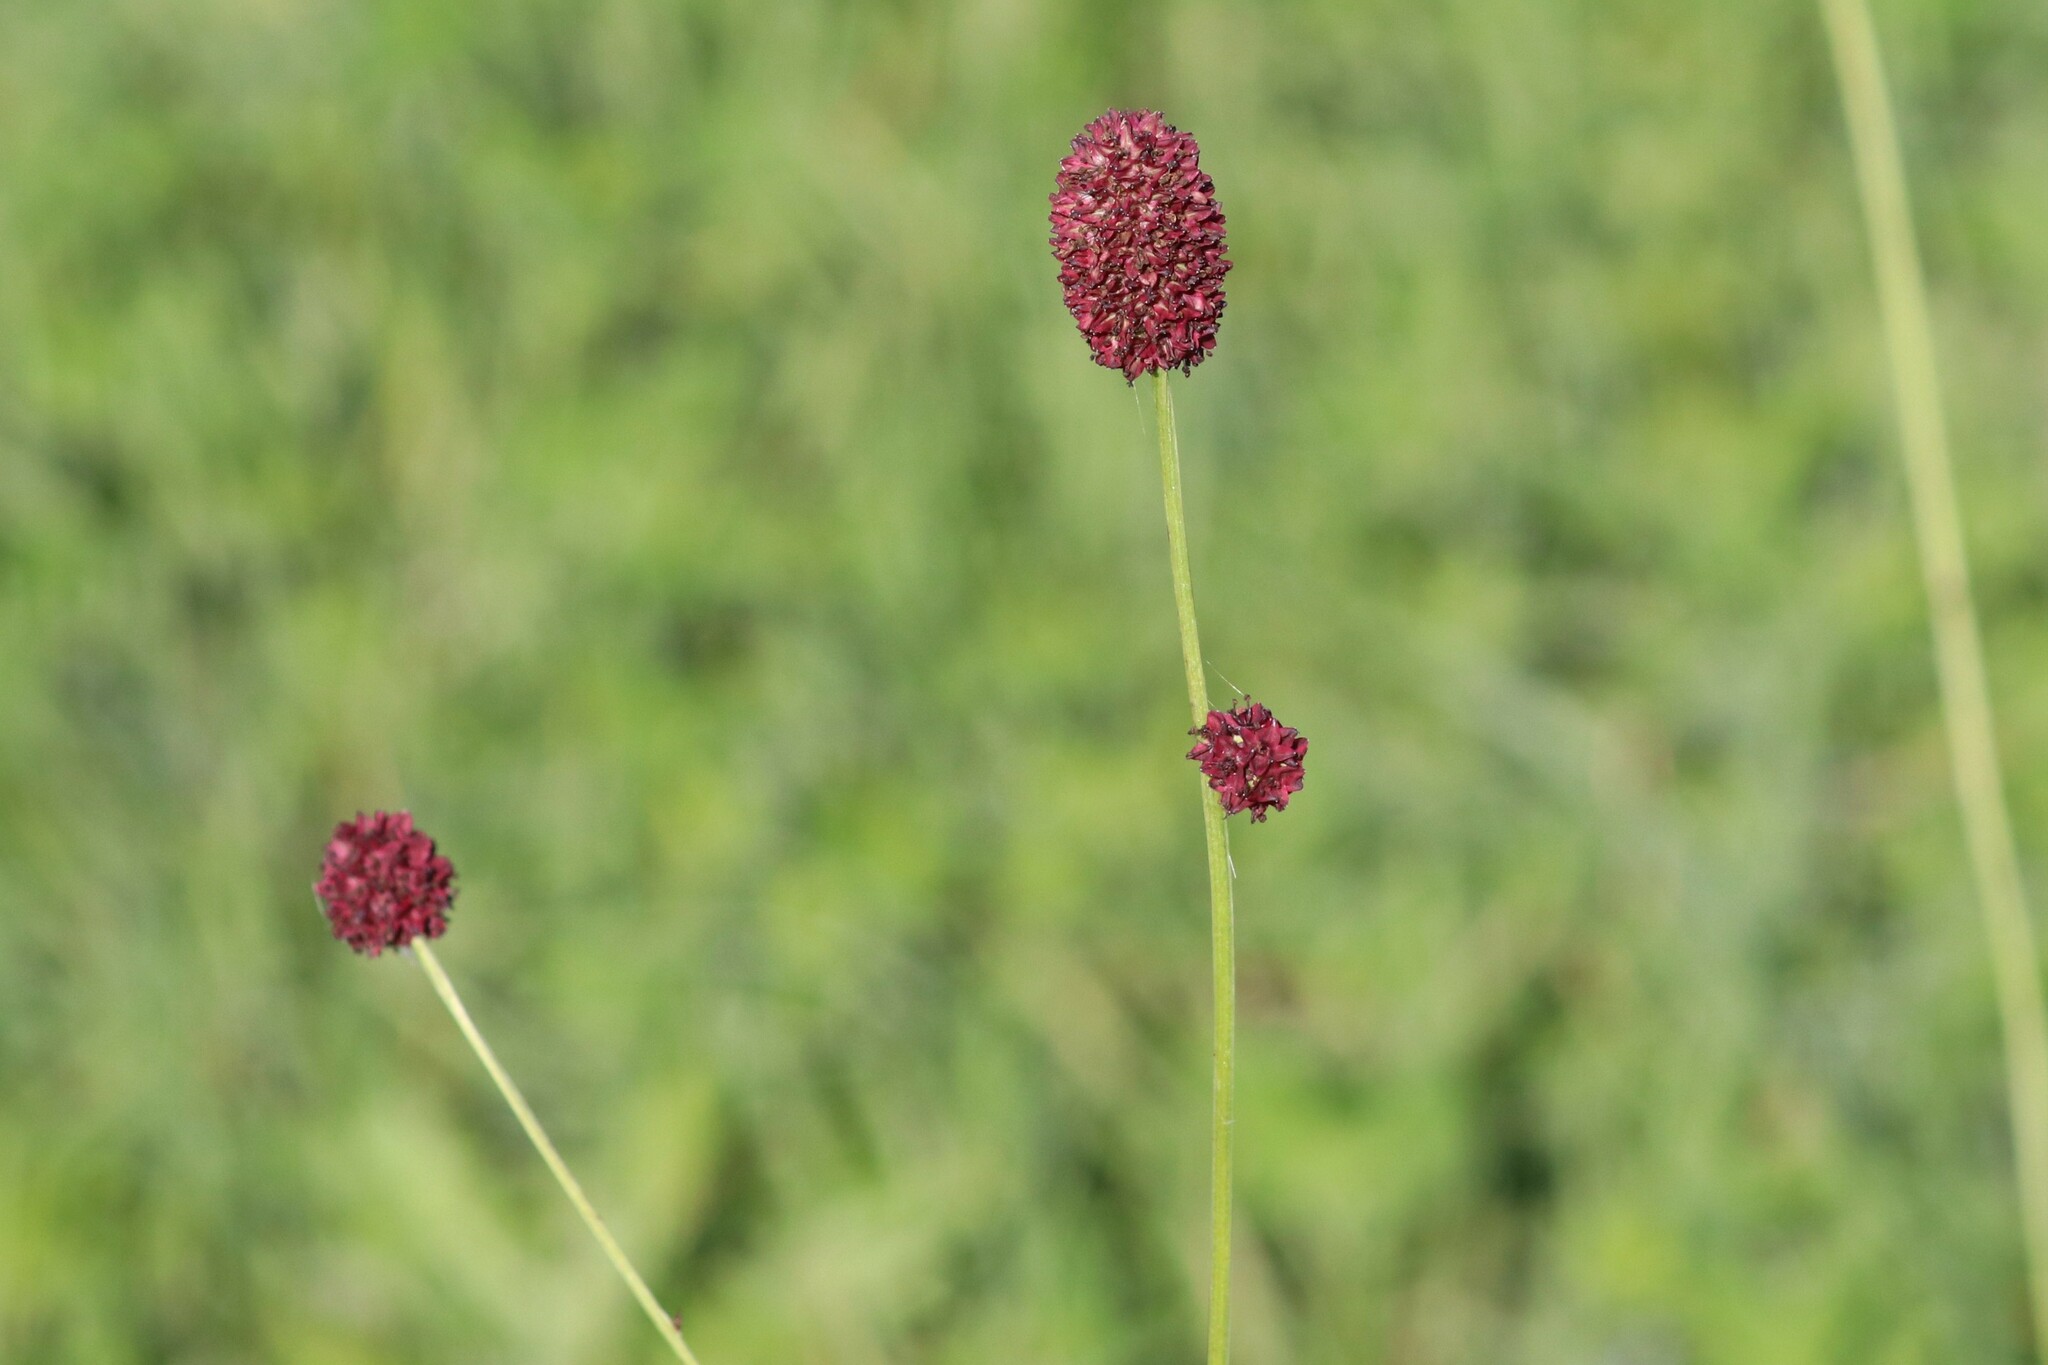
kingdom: Plantae
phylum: Tracheophyta
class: Magnoliopsida
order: Rosales
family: Rosaceae
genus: Sanguisorba
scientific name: Sanguisorba officinalis
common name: Great burnet
